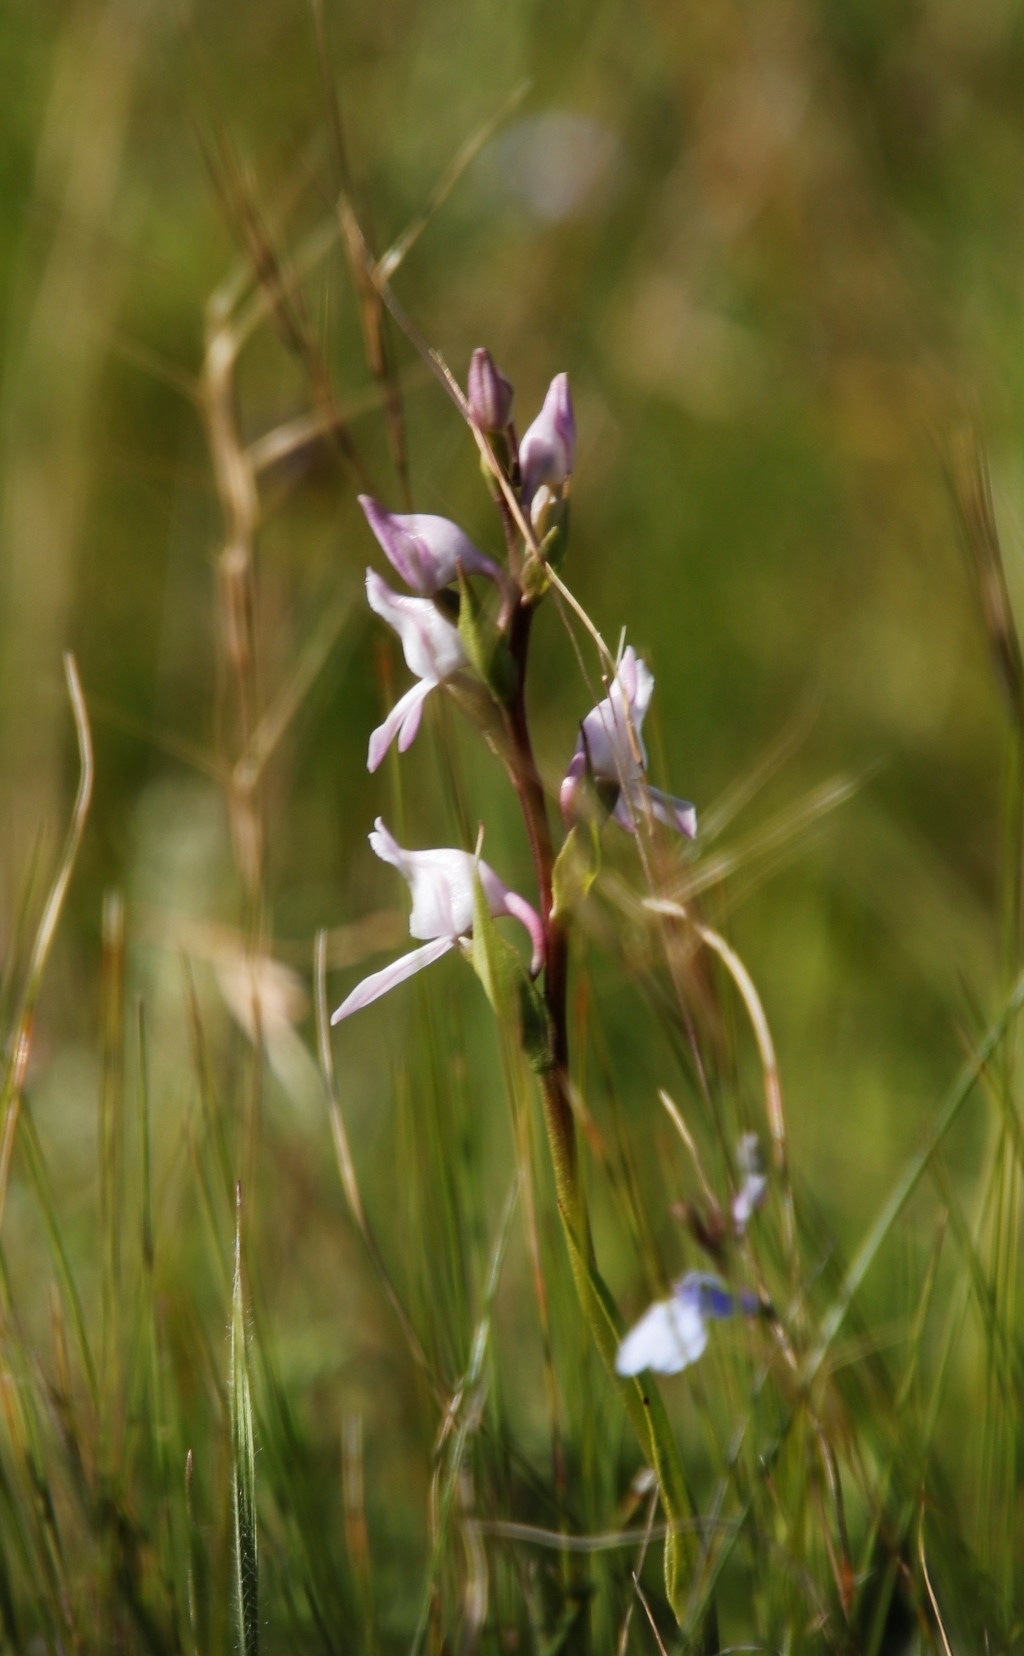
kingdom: Plantae
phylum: Tracheophyta
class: Liliopsida
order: Asparagales
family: Orchidaceae
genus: Brownleea
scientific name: Brownleea recurvata
